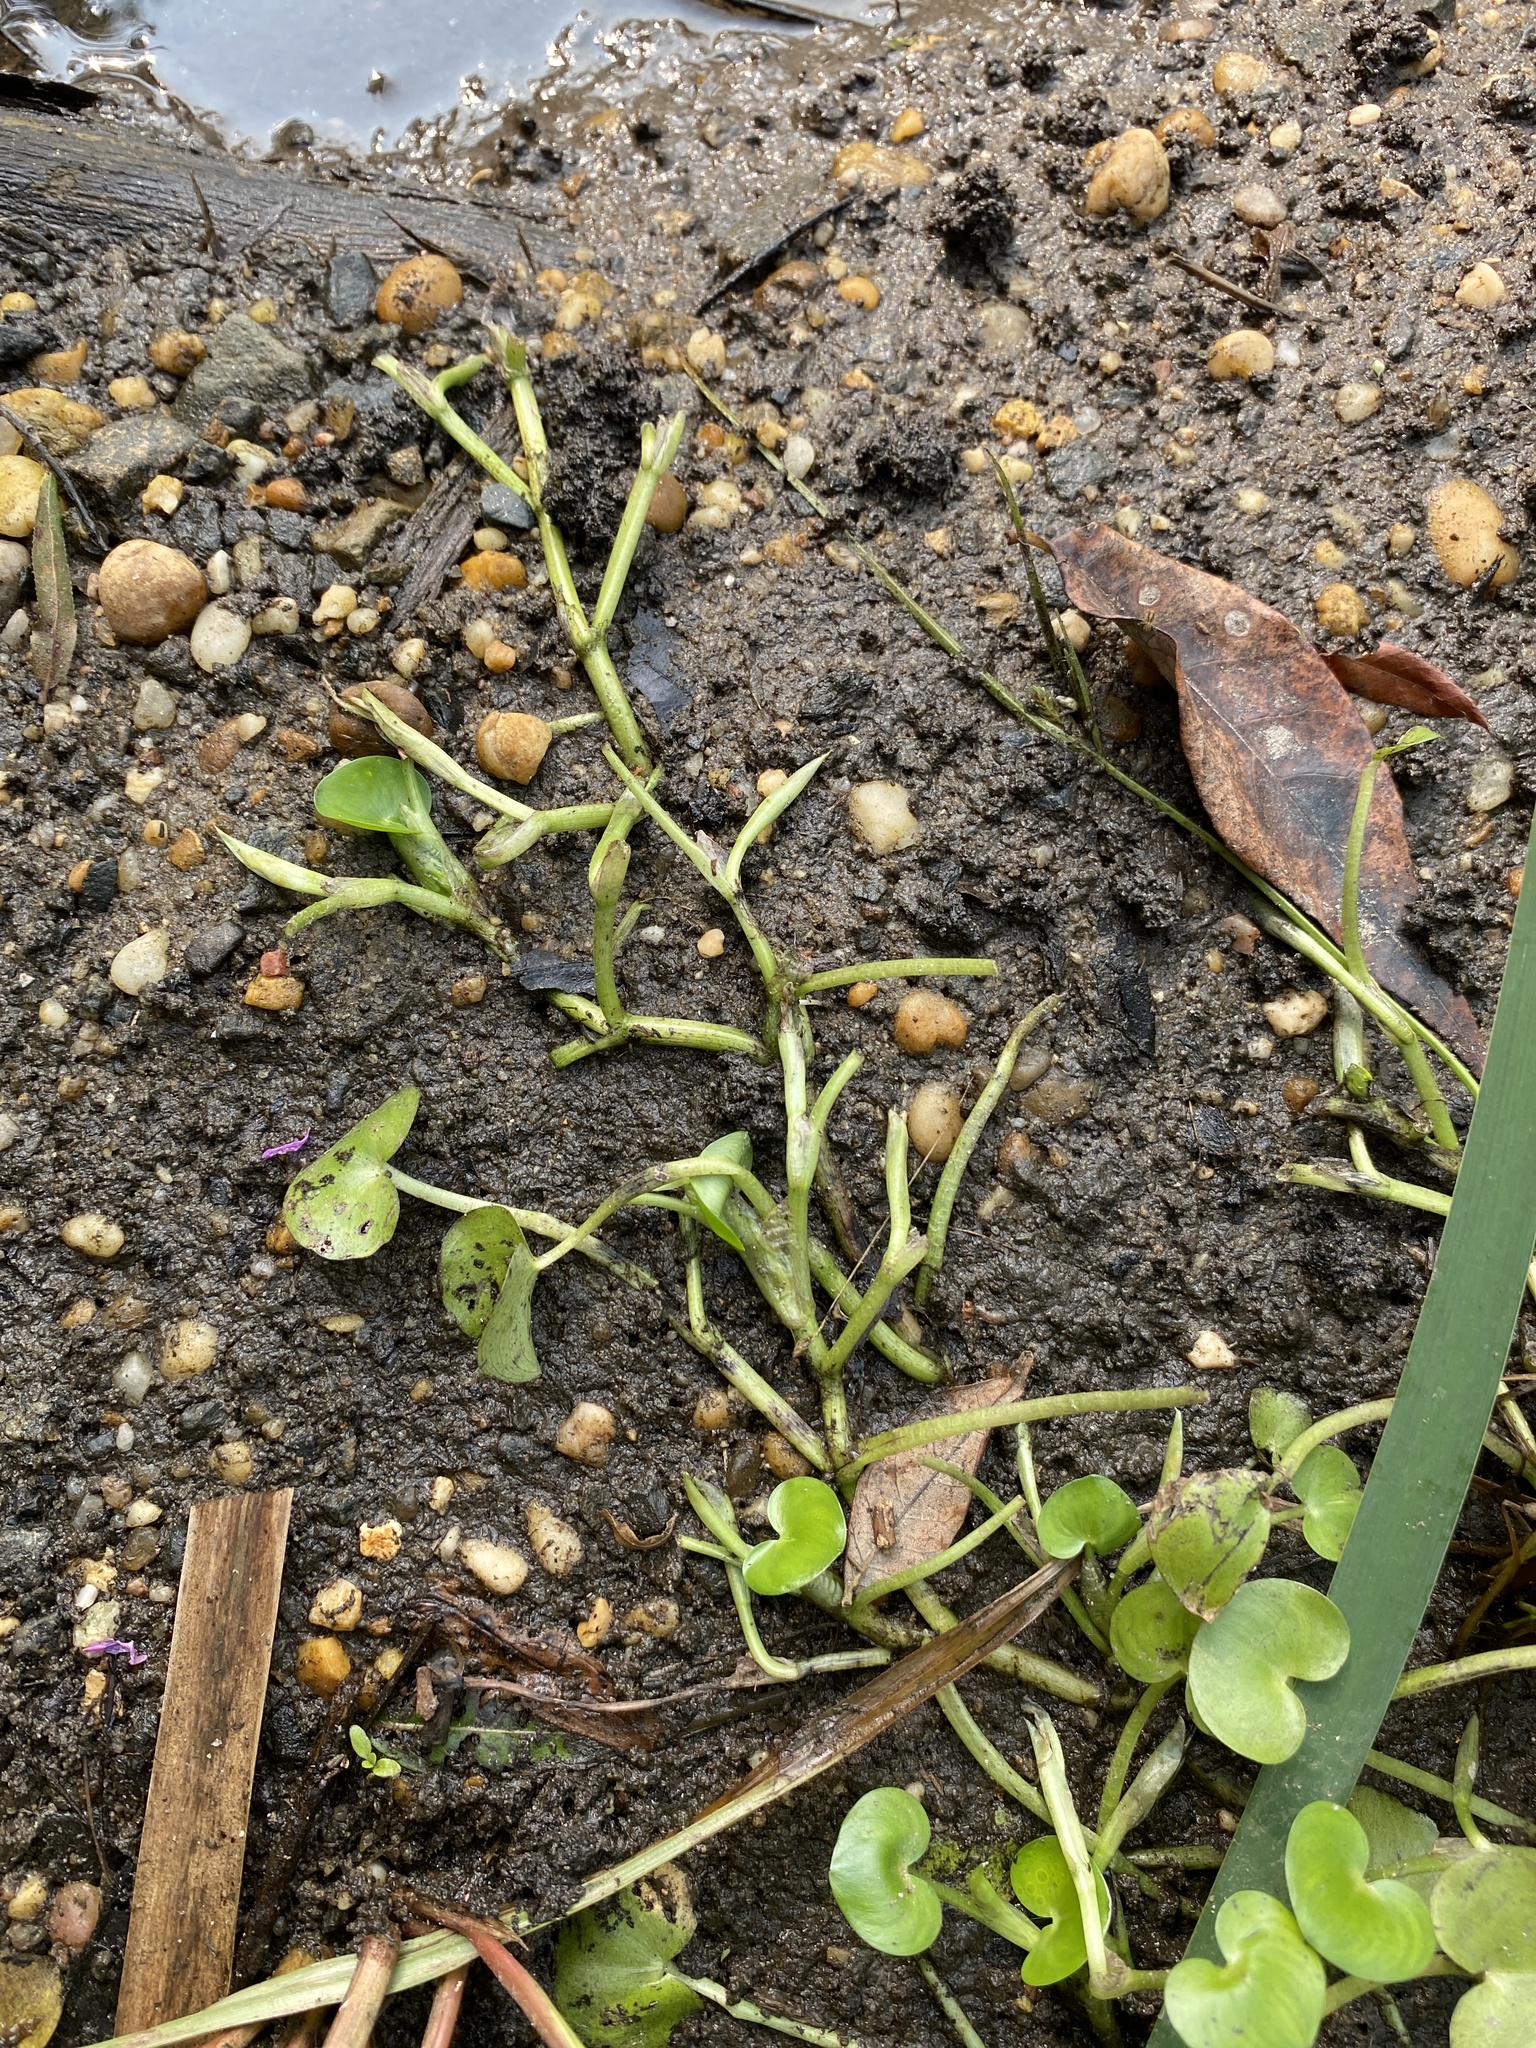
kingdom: Plantae
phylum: Tracheophyta
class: Liliopsida
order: Poales
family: Cyperaceae
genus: Cyperus
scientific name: Cyperus bipartitus
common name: Brook flatsedge
